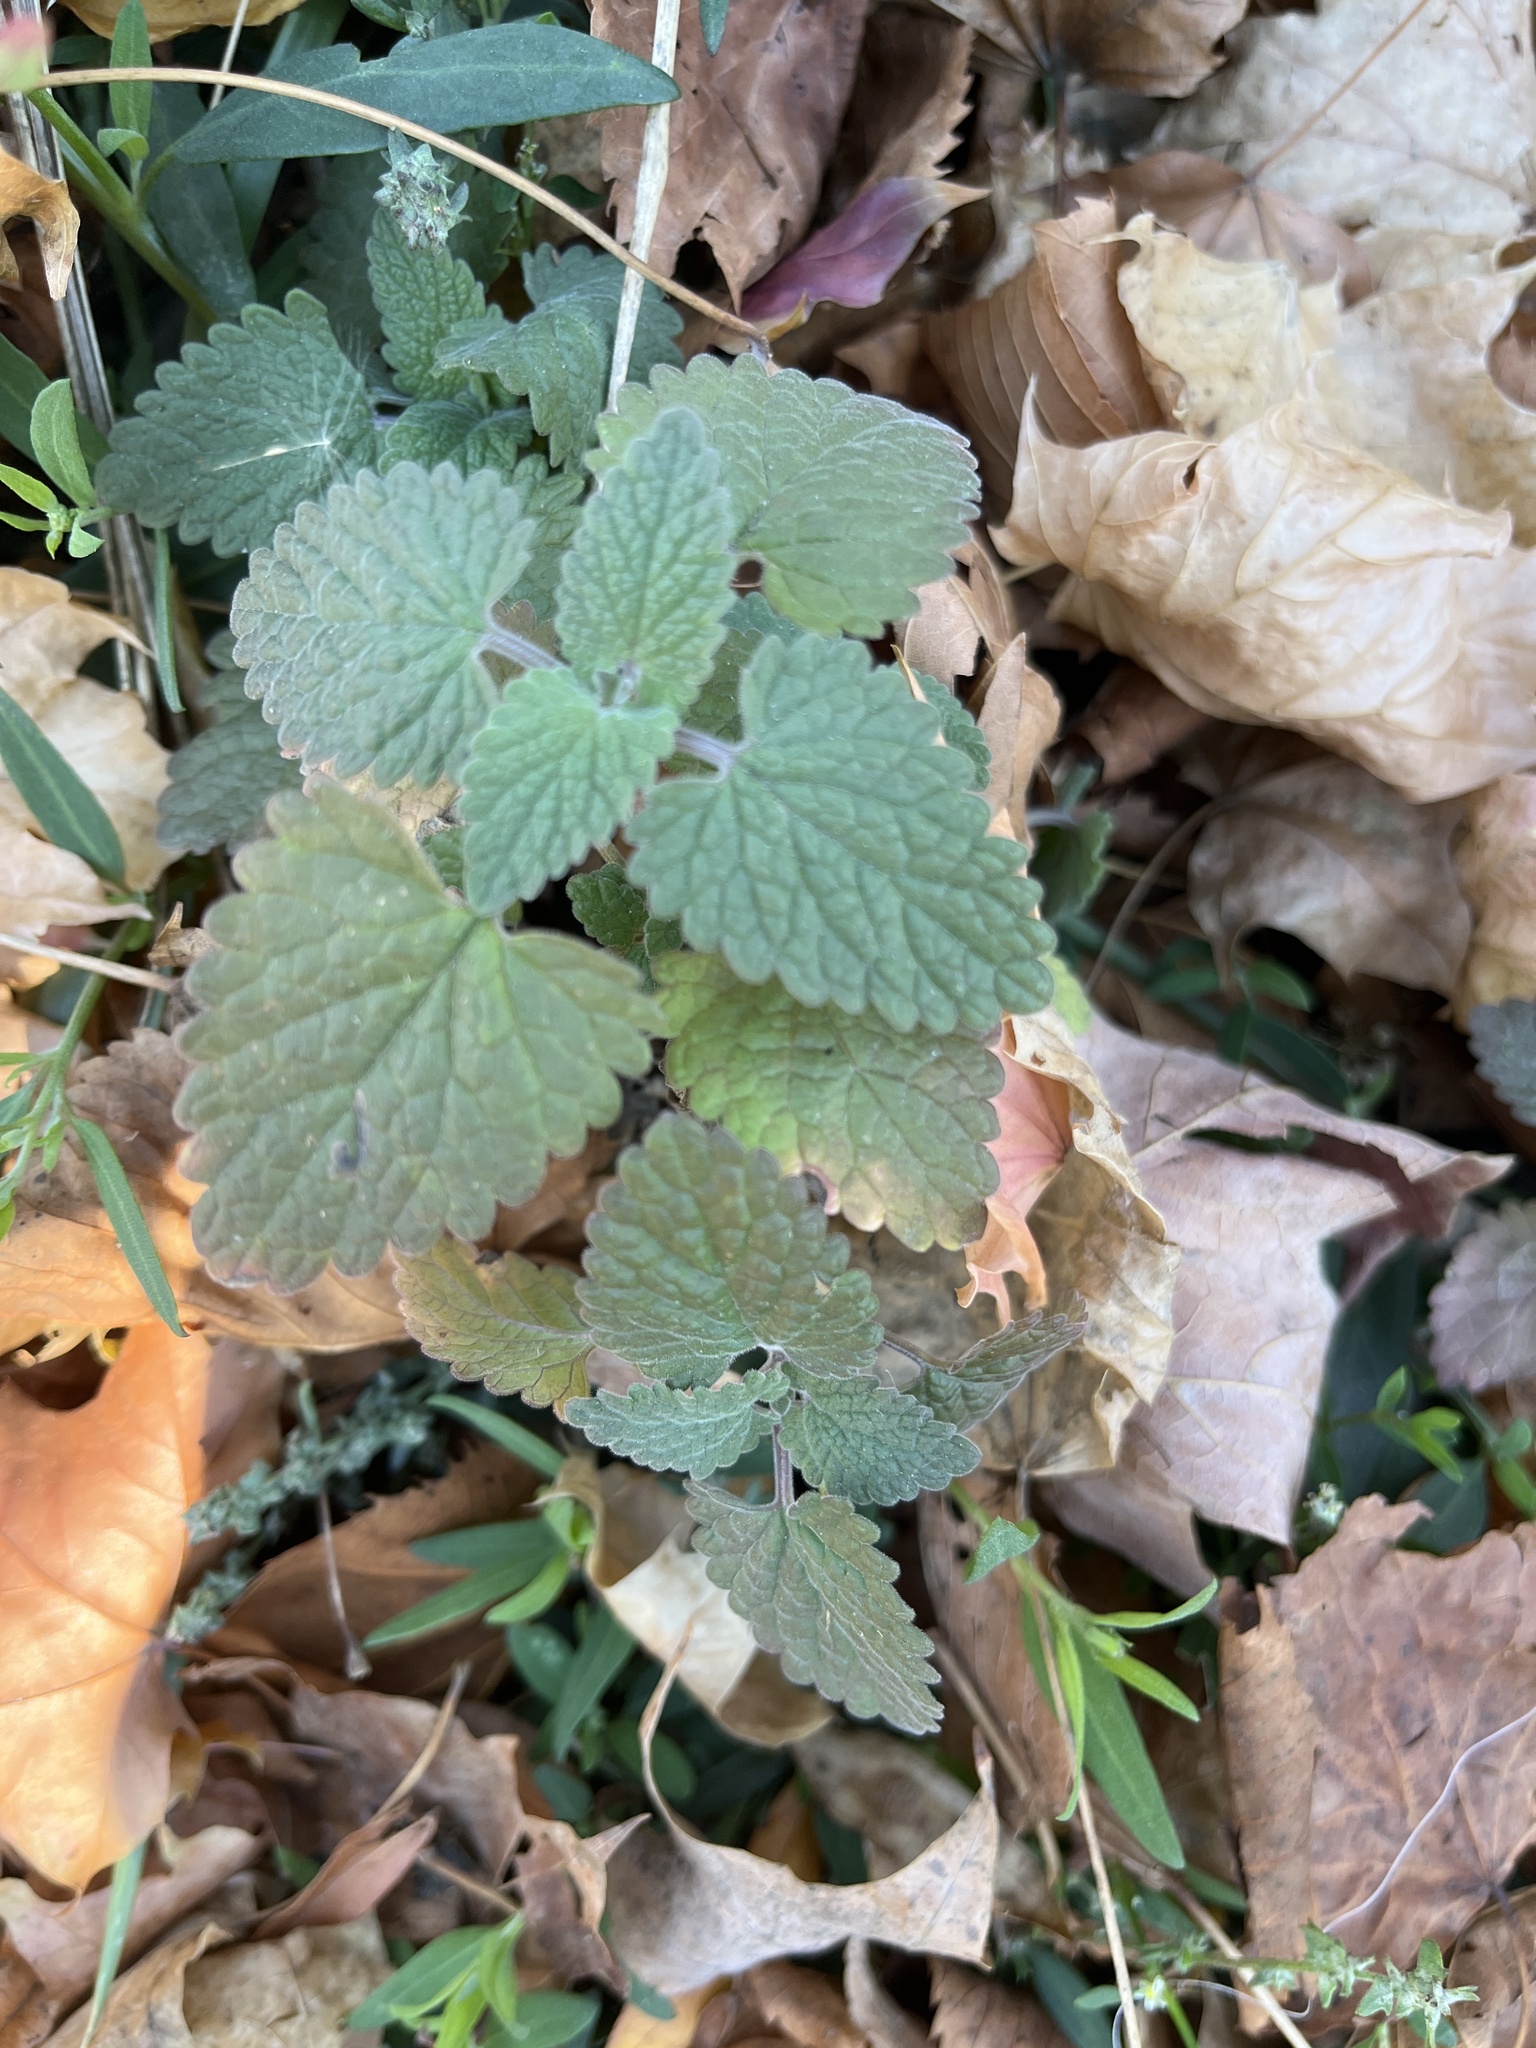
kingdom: Plantae
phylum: Tracheophyta
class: Magnoliopsida
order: Lamiales
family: Lamiaceae
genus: Nepeta
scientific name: Nepeta cataria
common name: Catnip
